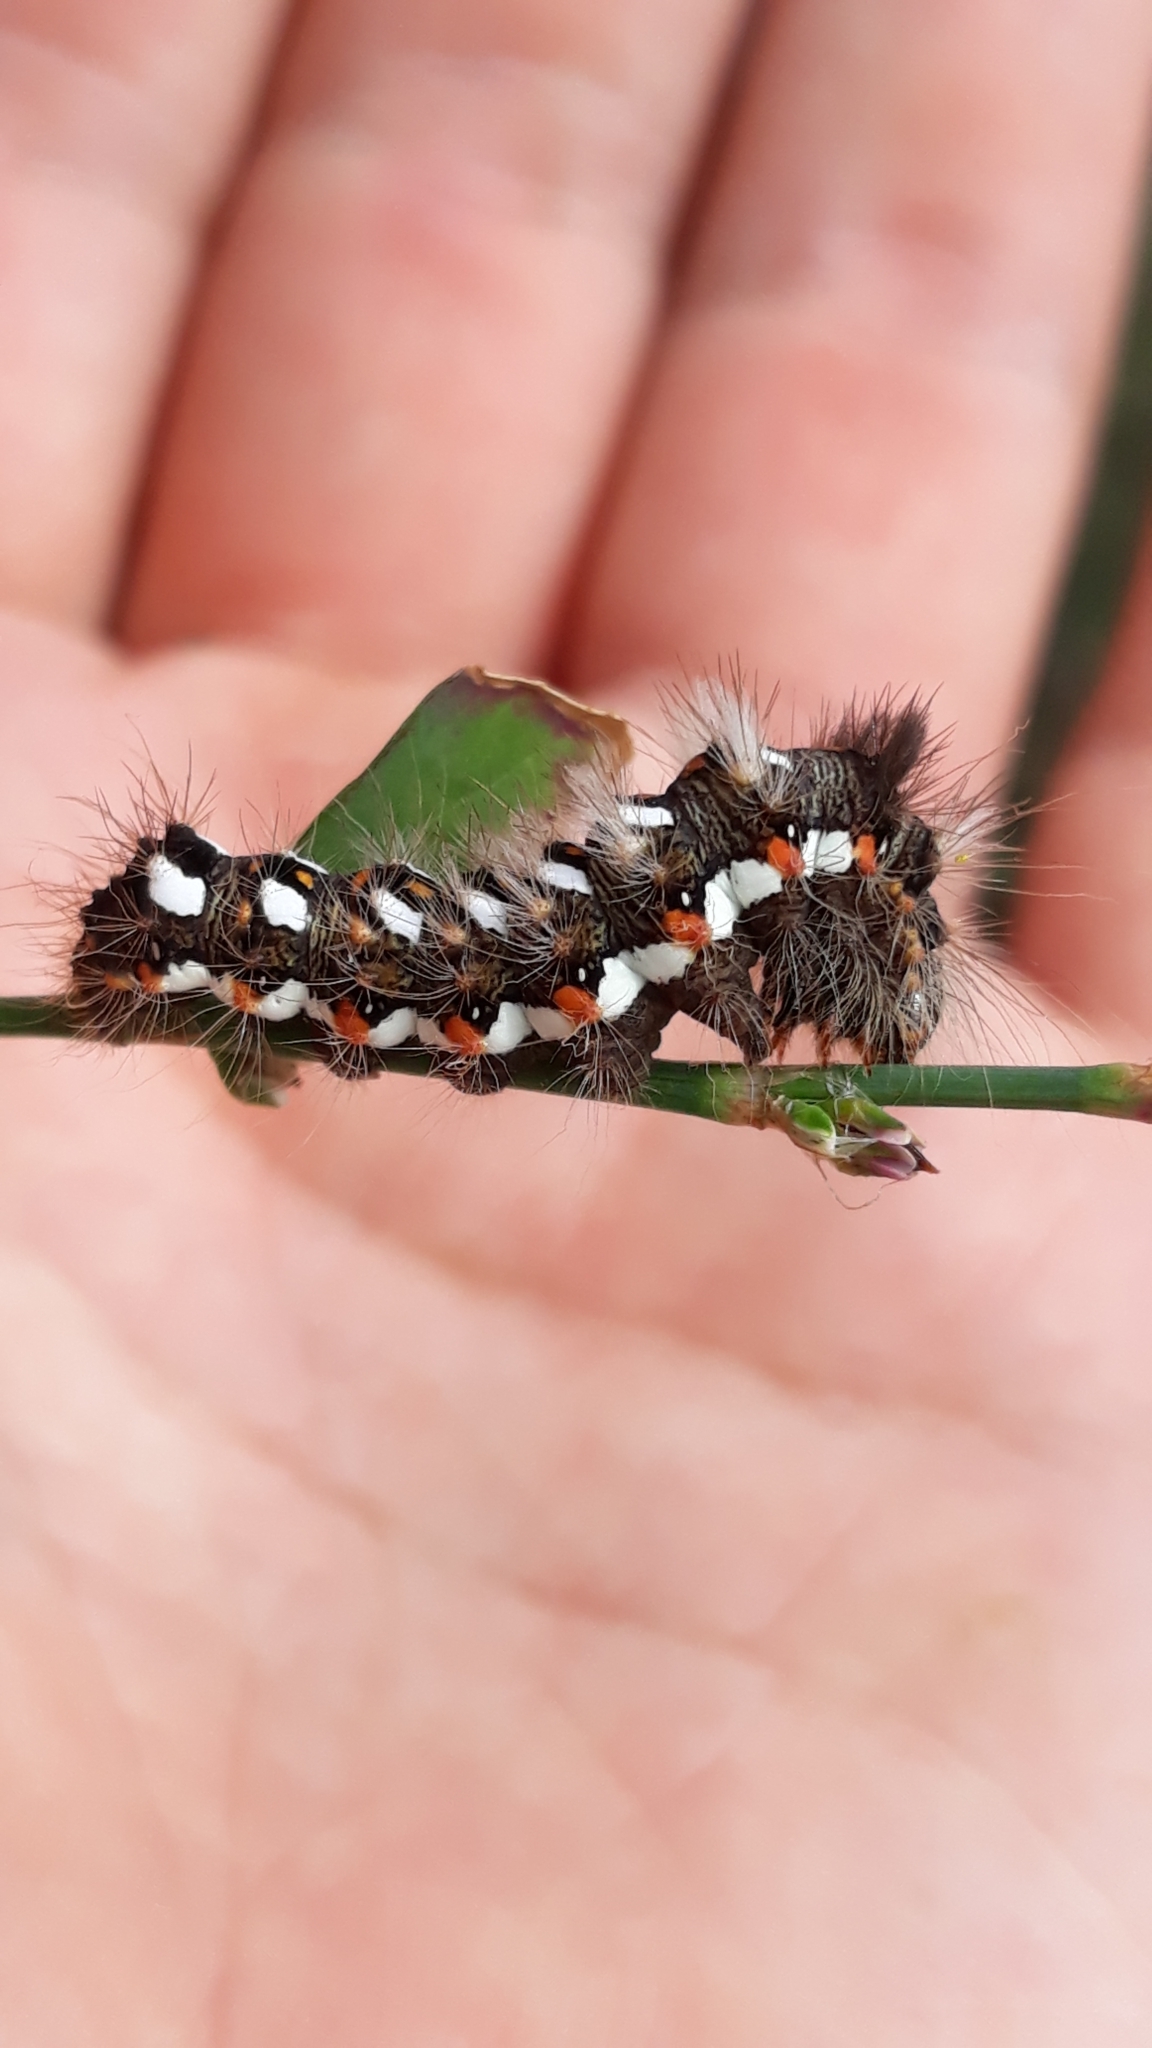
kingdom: Animalia
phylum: Arthropoda
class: Insecta
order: Lepidoptera
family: Noctuidae
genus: Acronicta
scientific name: Acronicta rumicis
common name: Knot grass
